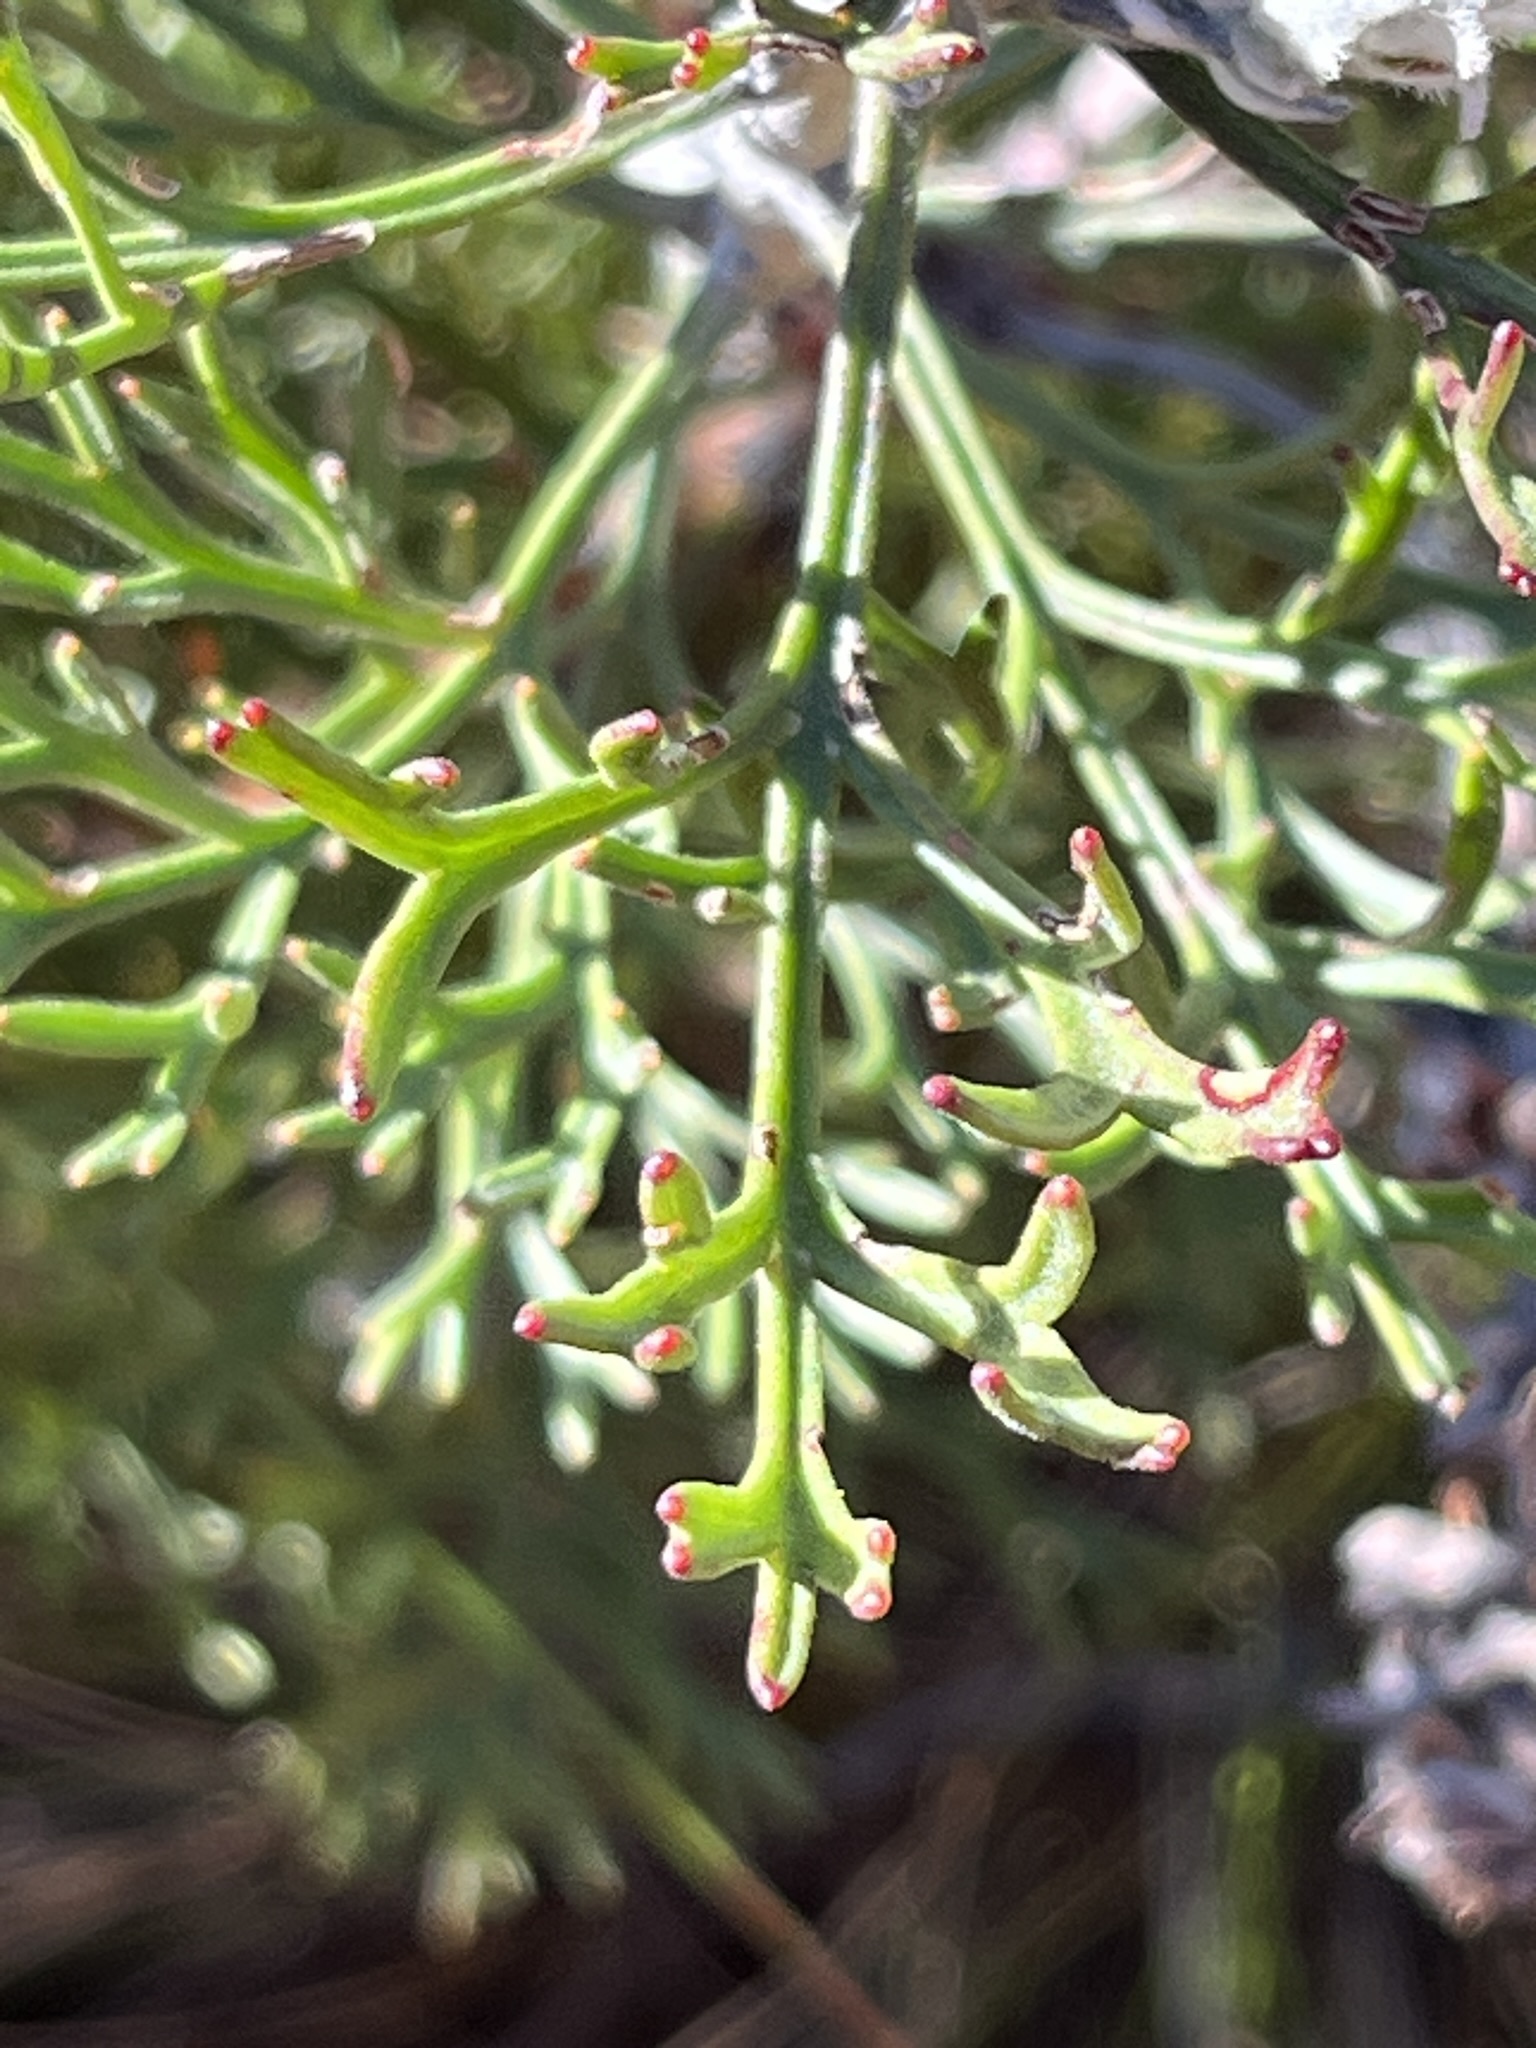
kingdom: Plantae
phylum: Tracheophyta
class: Magnoliopsida
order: Proteales
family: Proteaceae
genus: Paranomus
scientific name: Paranomus bolusii
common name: Overberg sceptre
